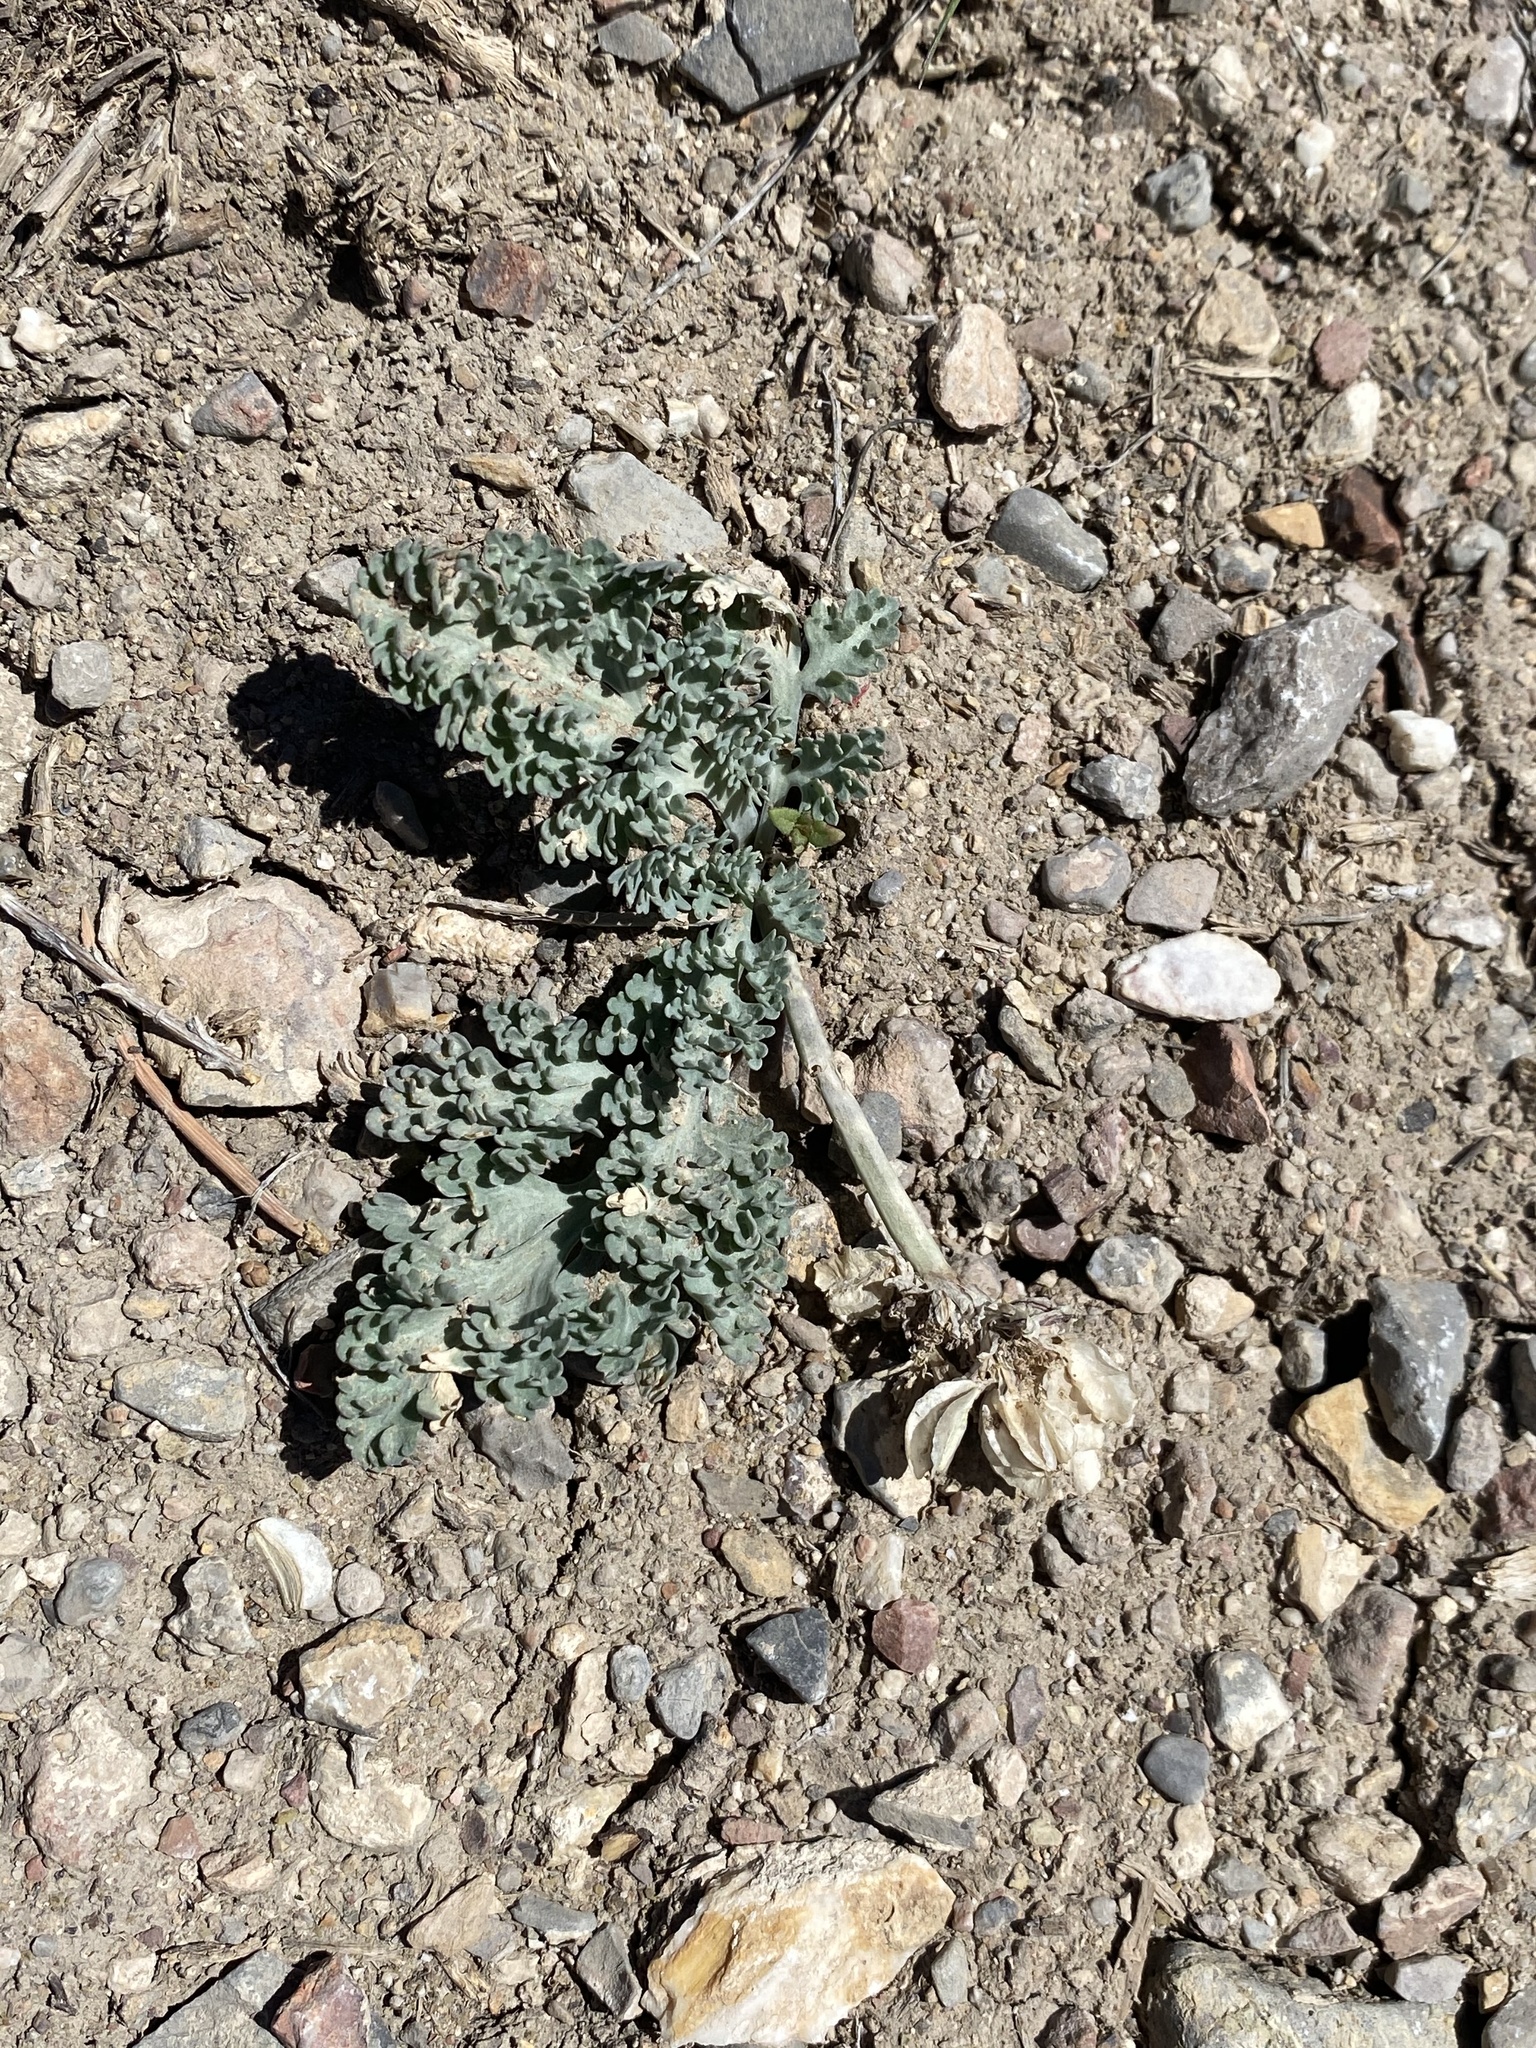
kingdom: Plantae
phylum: Tracheophyta
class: Magnoliopsida
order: Apiales
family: Apiaceae
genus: Vesper
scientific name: Vesper purpurascens
